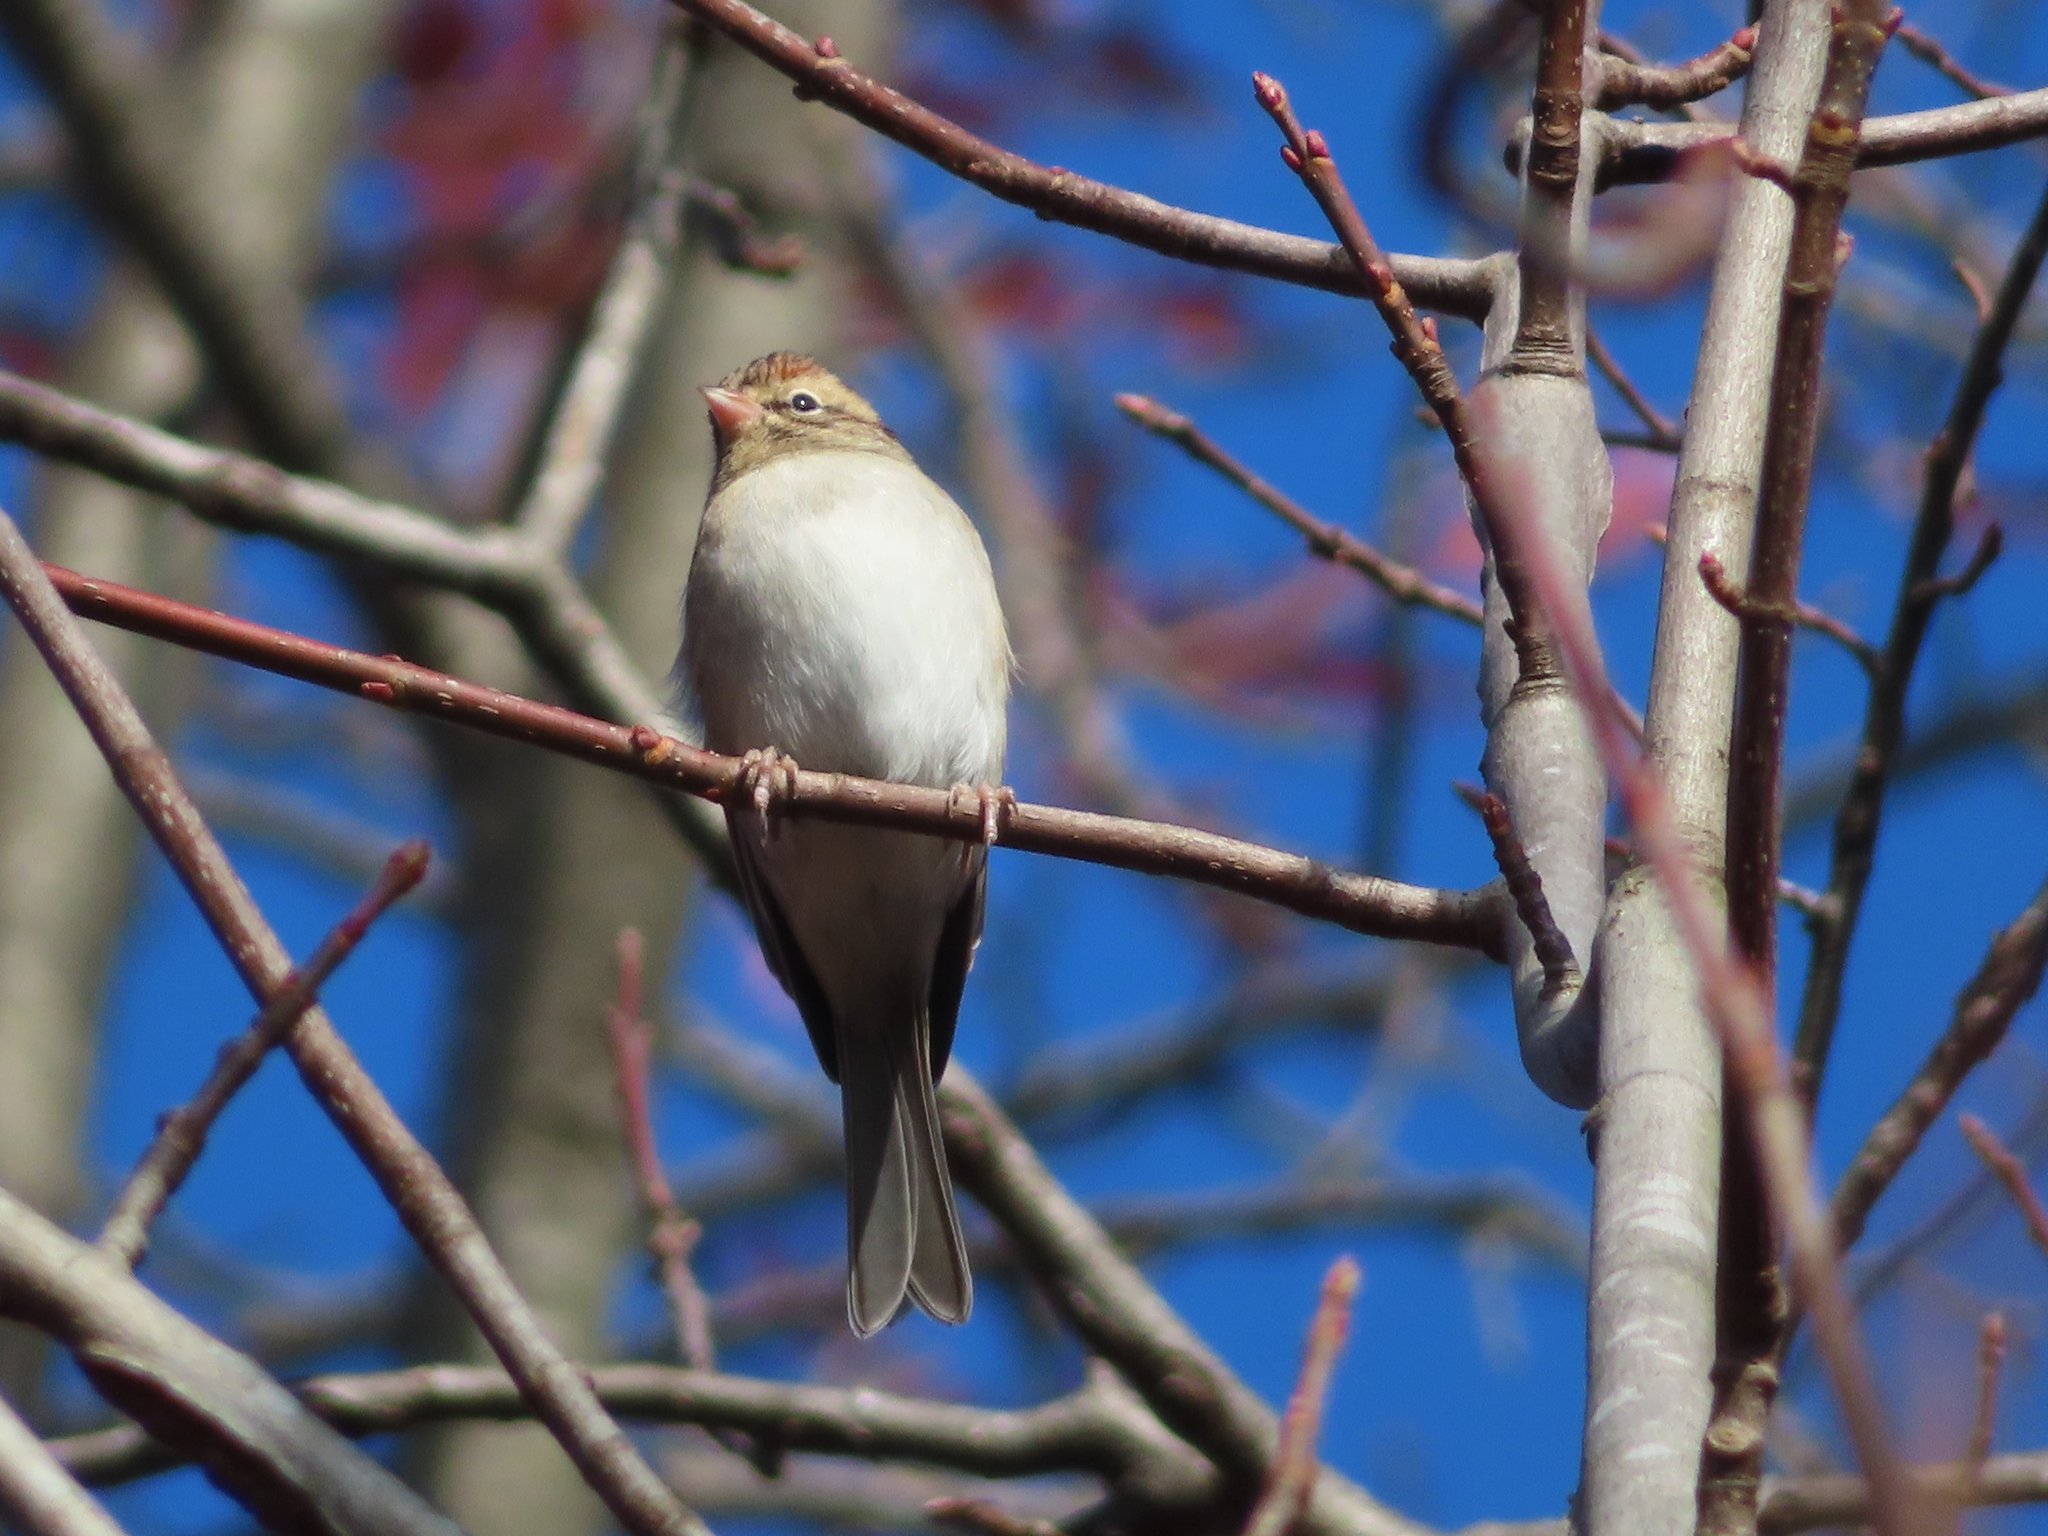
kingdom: Animalia
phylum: Chordata
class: Aves
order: Passeriformes
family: Passerellidae
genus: Spizella
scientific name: Spizella passerina
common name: Chipping sparrow
